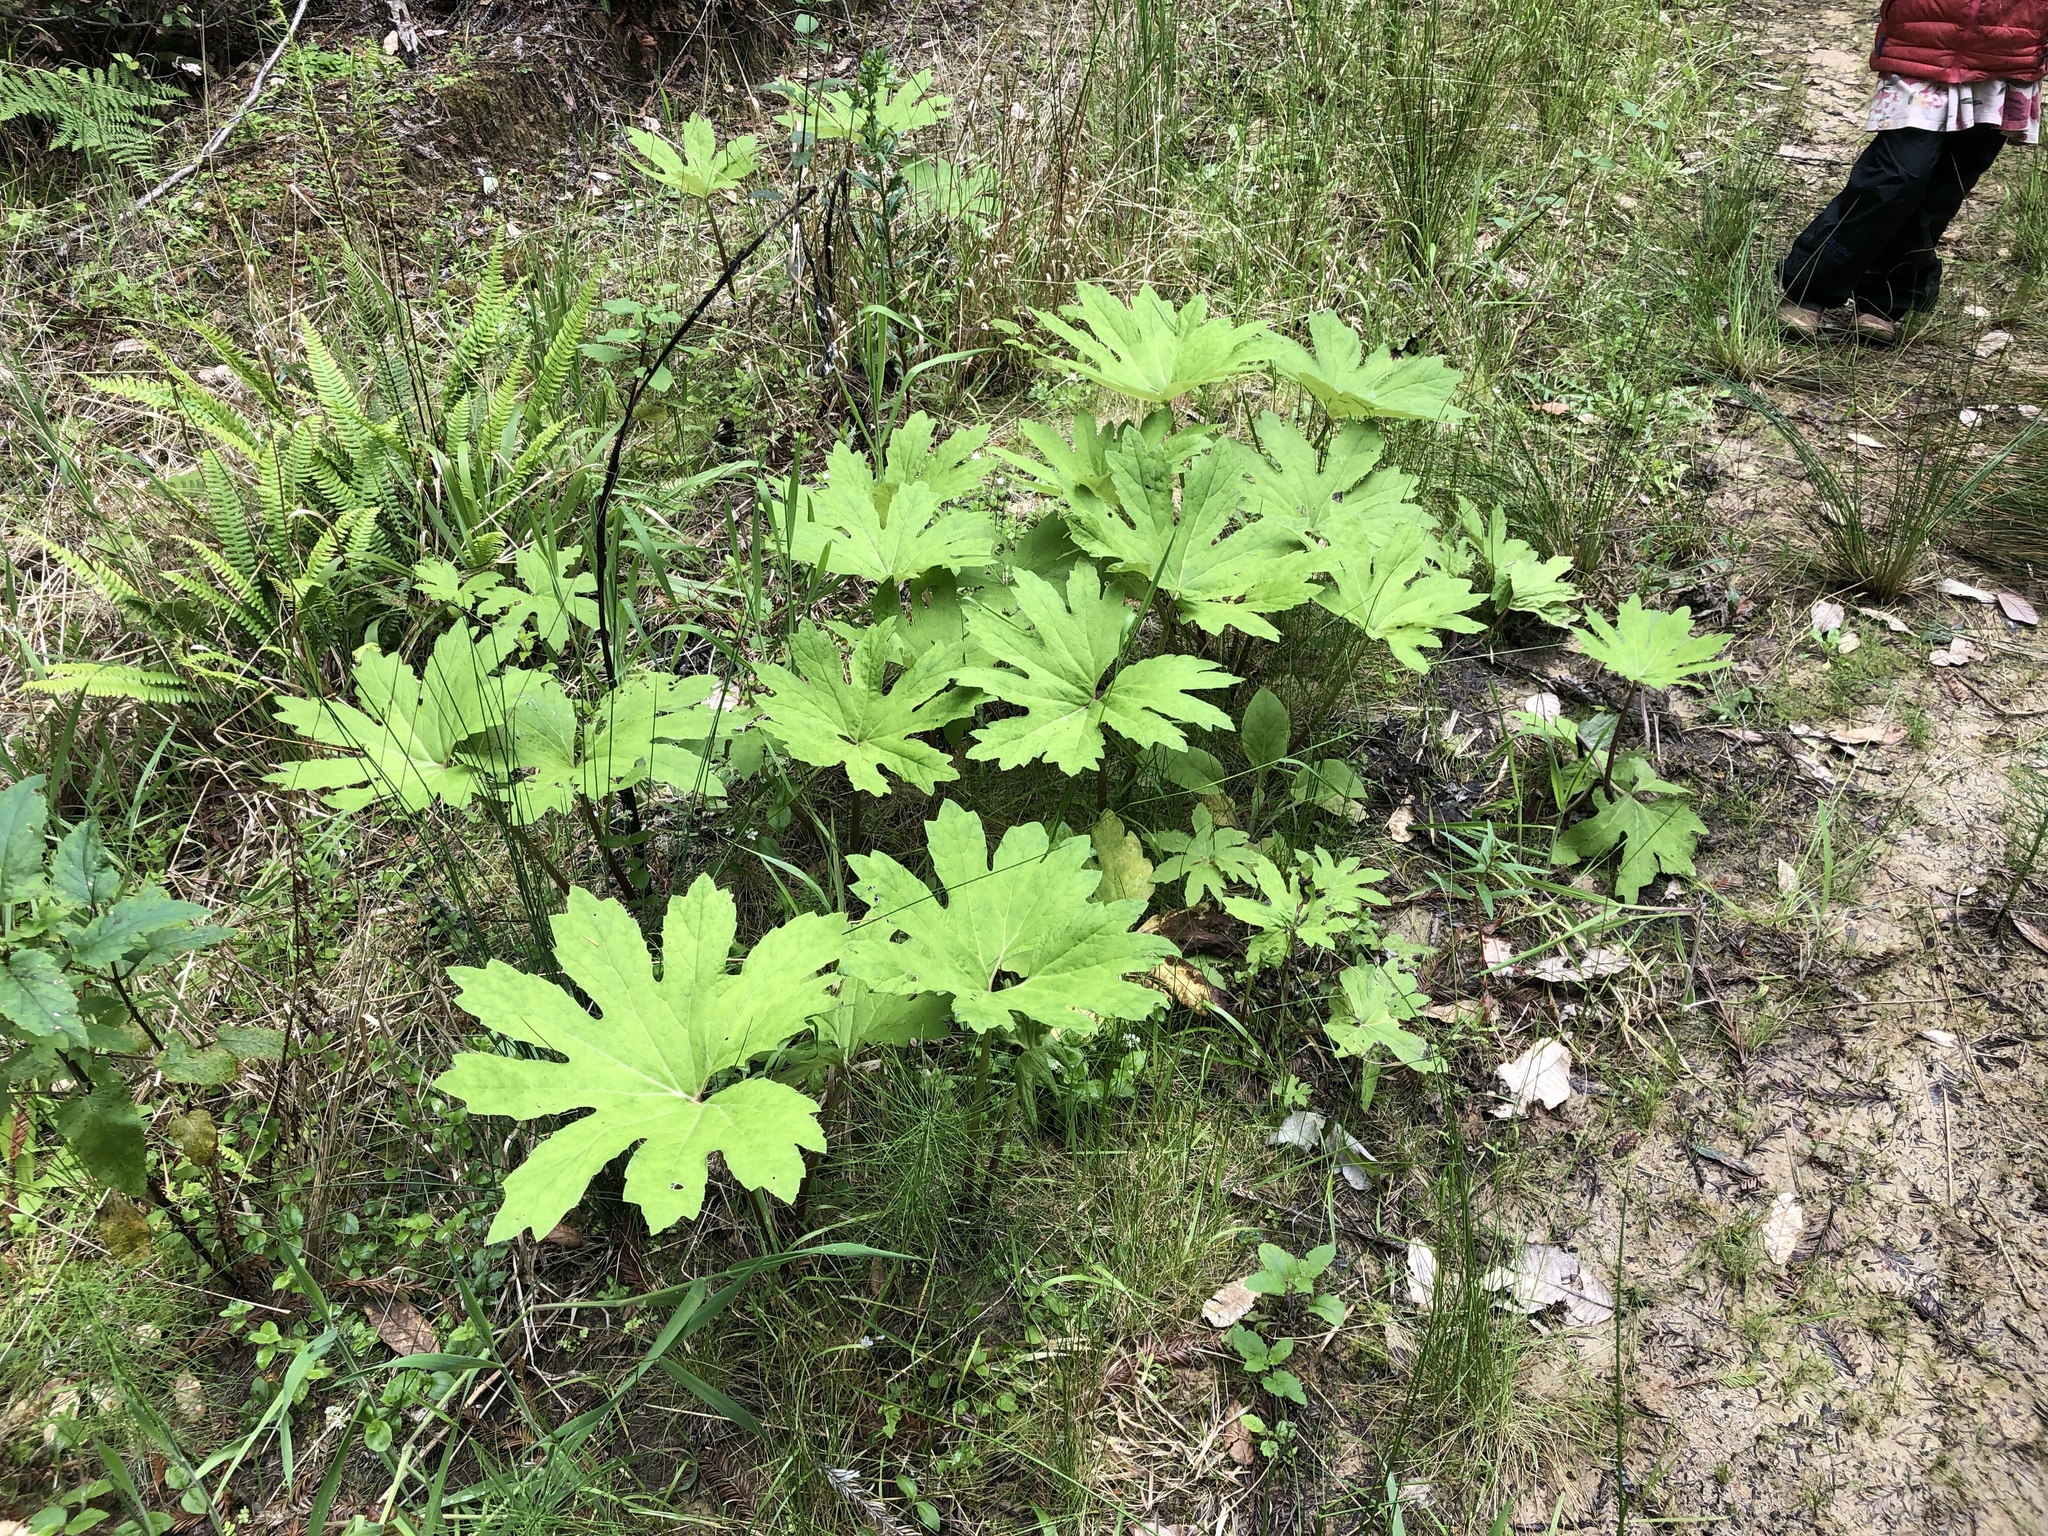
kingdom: Plantae
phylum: Tracheophyta
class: Magnoliopsida
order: Asterales
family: Asteraceae
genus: Petasites
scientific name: Petasites frigidus
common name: Arctic butterbur
